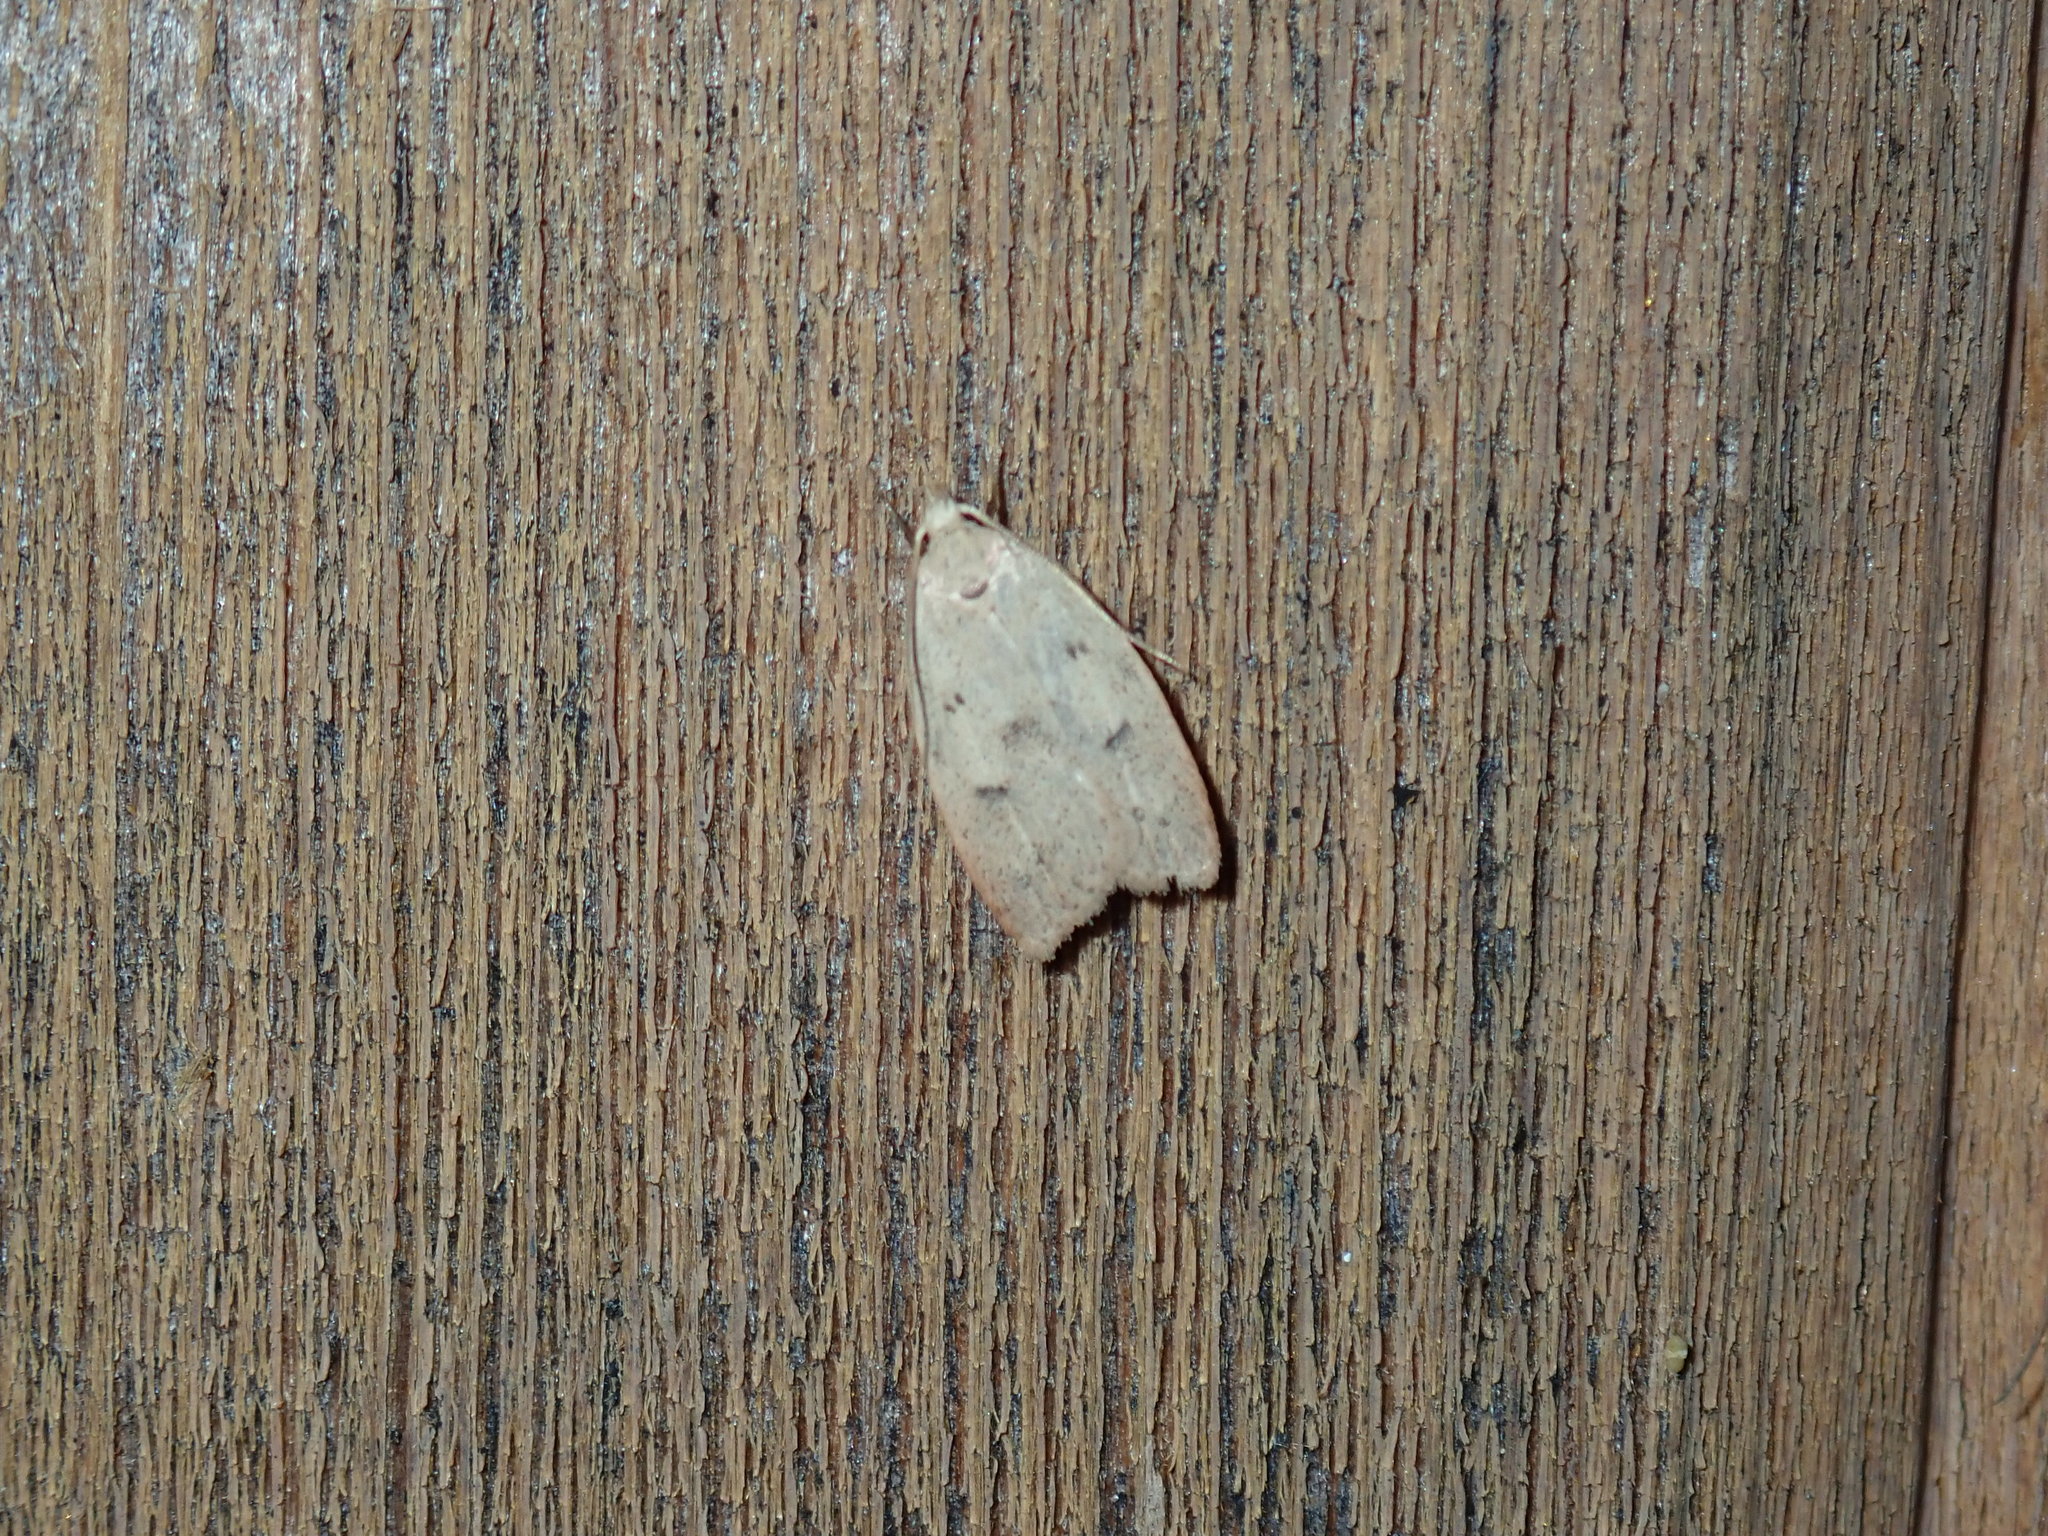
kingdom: Animalia
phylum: Arthropoda
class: Insecta
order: Lepidoptera
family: Peleopodidae
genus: Machimia
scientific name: Machimia tentoriferella
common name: Gold-striped leaftier moth
